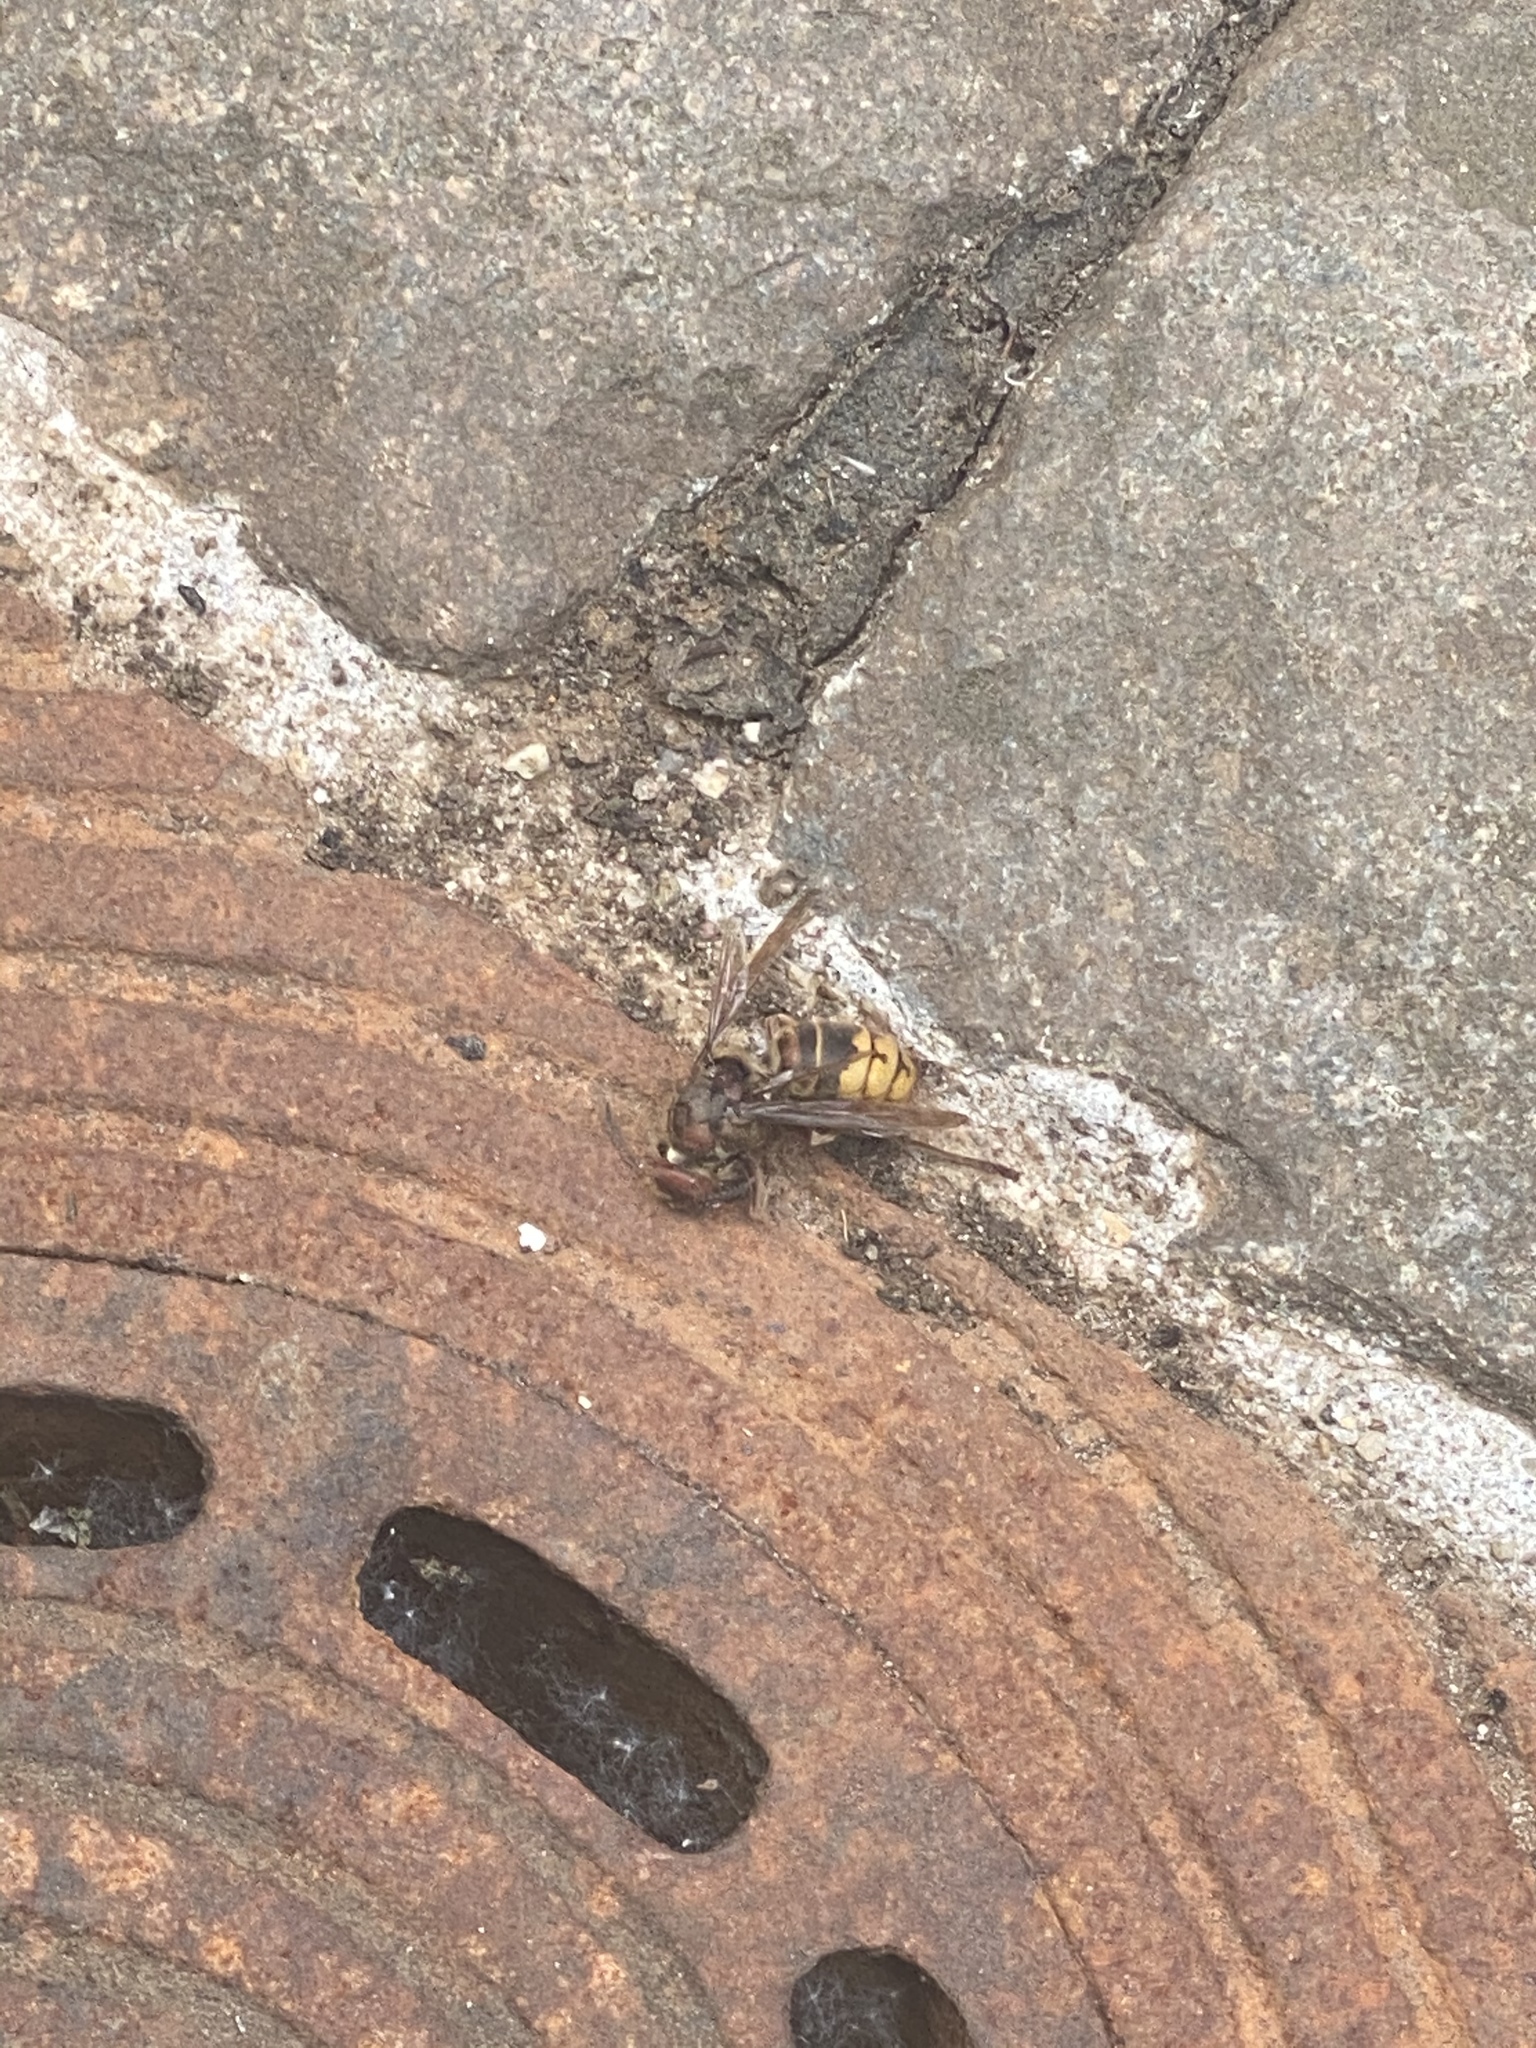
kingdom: Animalia
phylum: Arthropoda
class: Insecta
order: Hymenoptera
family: Vespidae
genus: Vespa
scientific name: Vespa crabro
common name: Hornet
